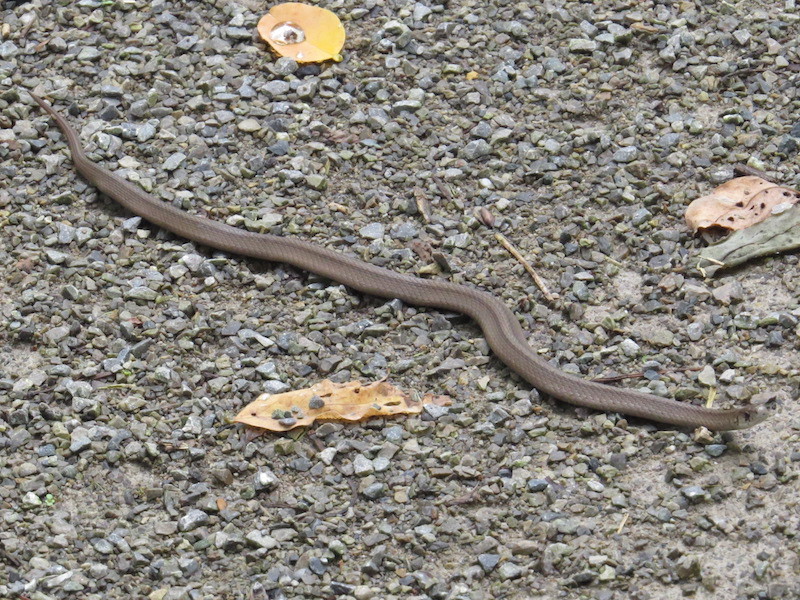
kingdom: Animalia
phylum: Chordata
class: Squamata
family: Colubridae
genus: Storeria
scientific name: Storeria dekayi
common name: (dekay’s) brown snake
